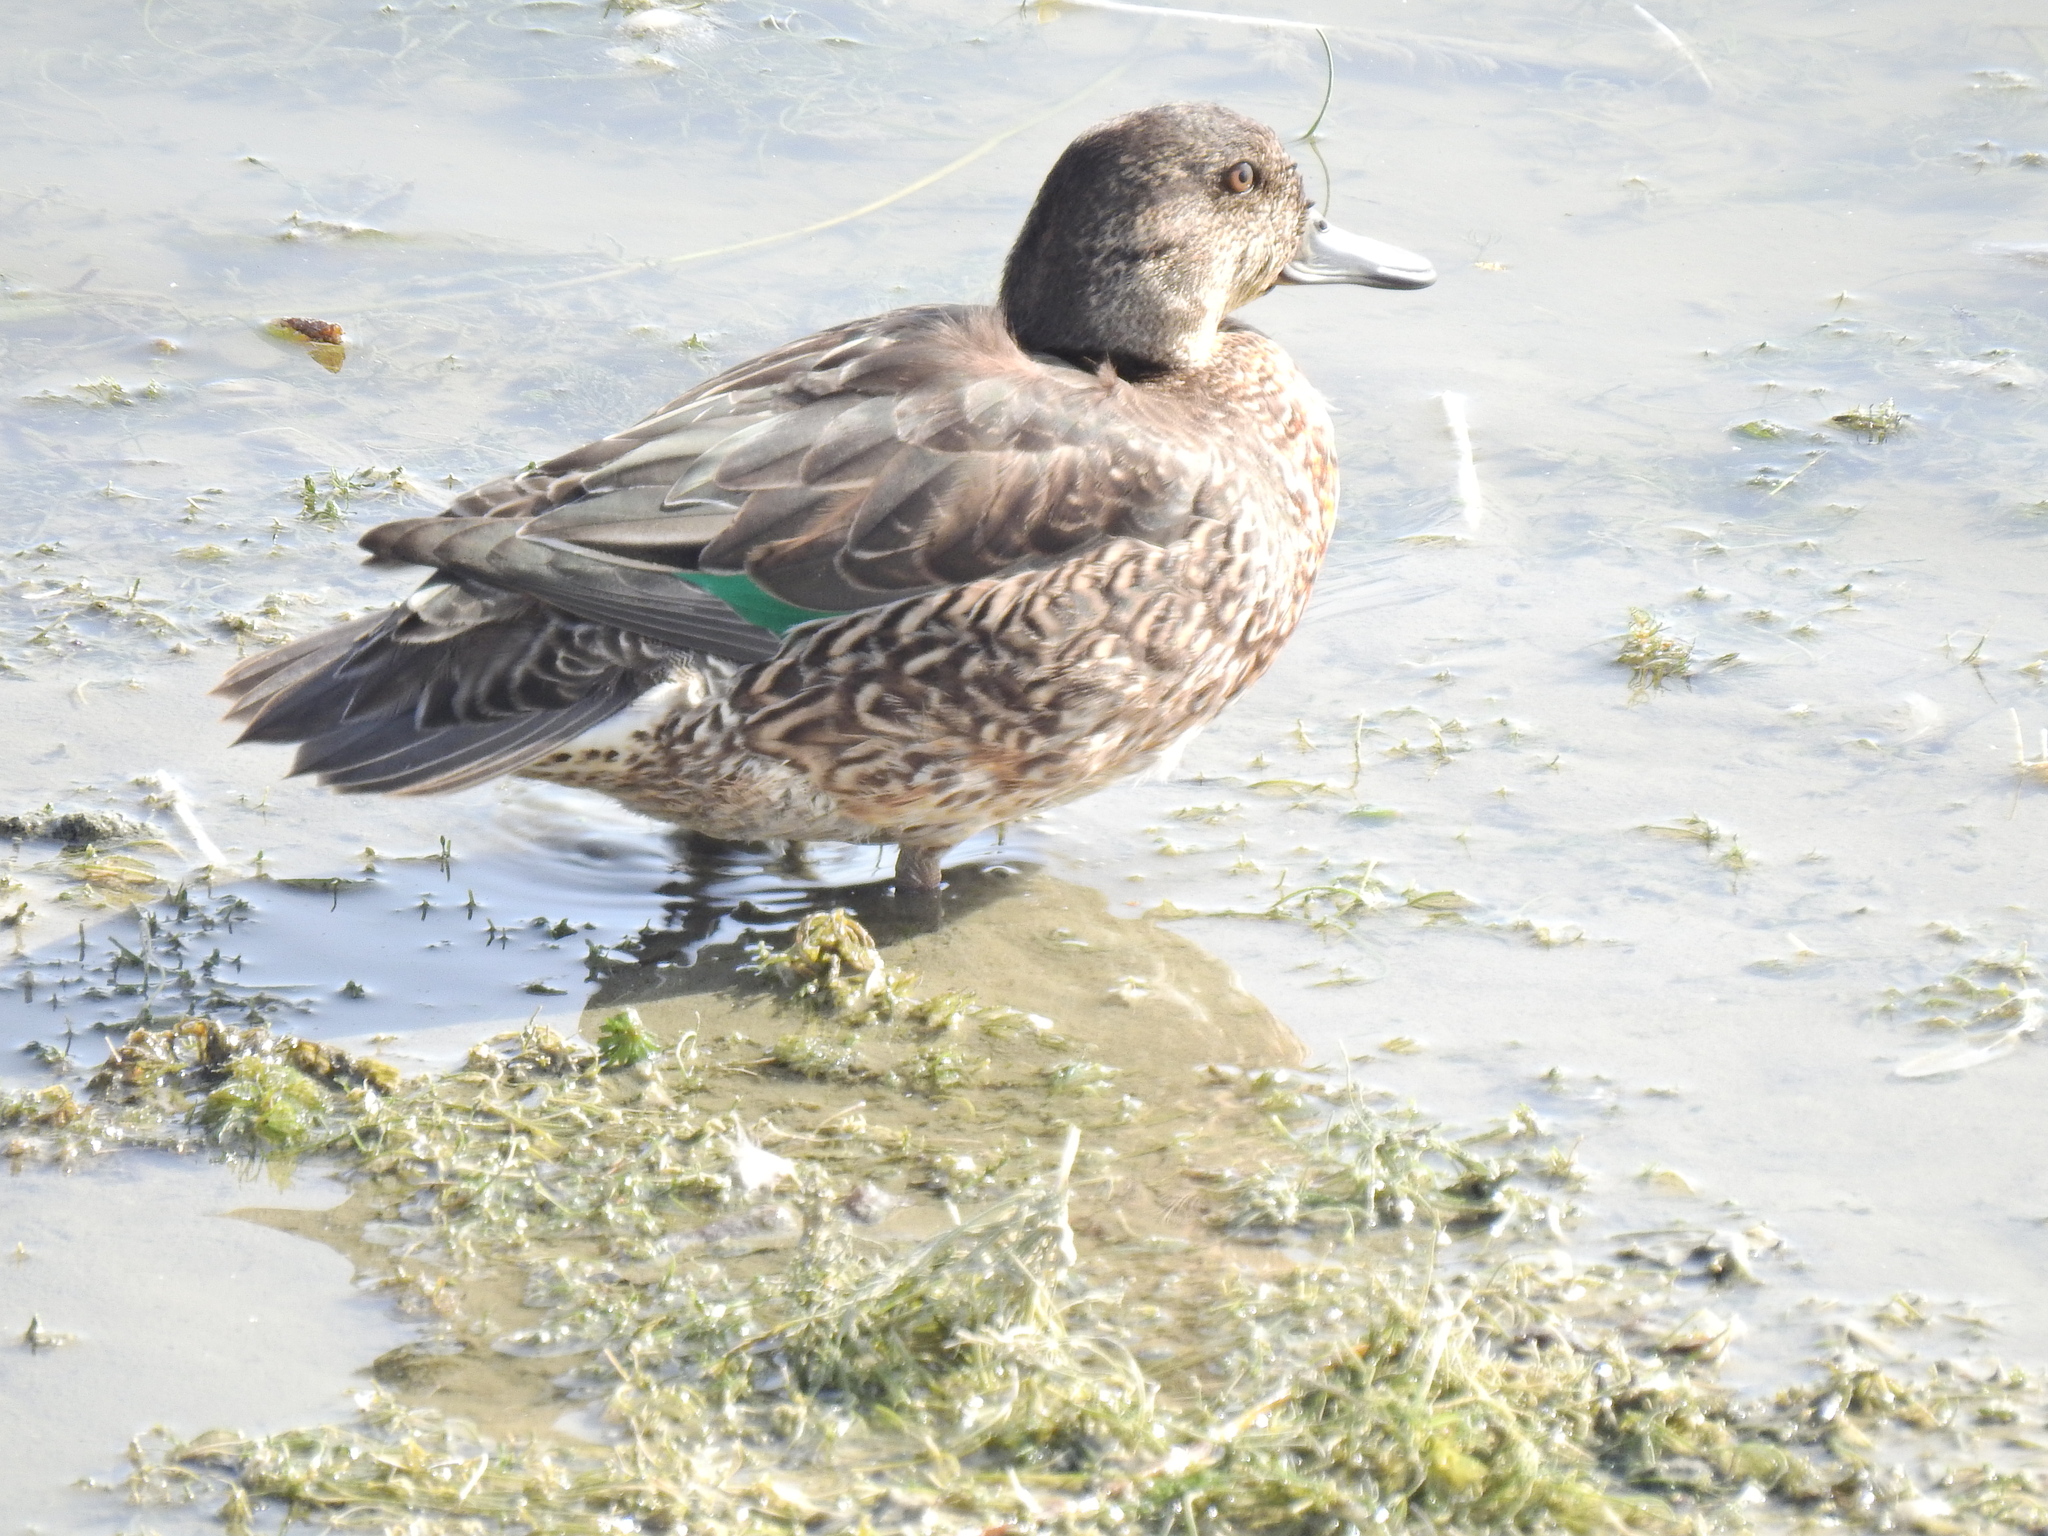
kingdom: Animalia
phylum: Chordata
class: Aves
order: Anseriformes
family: Anatidae
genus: Anas
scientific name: Anas crecca
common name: Eurasian teal
